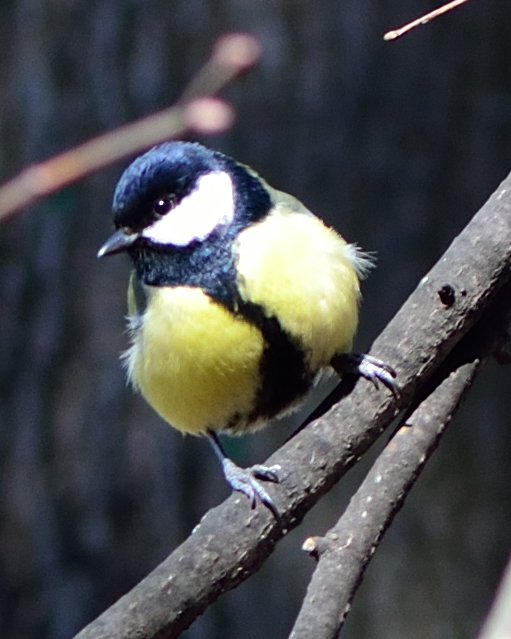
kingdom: Animalia
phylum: Chordata
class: Aves
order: Passeriformes
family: Paridae
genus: Parus
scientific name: Parus major
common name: Great tit
